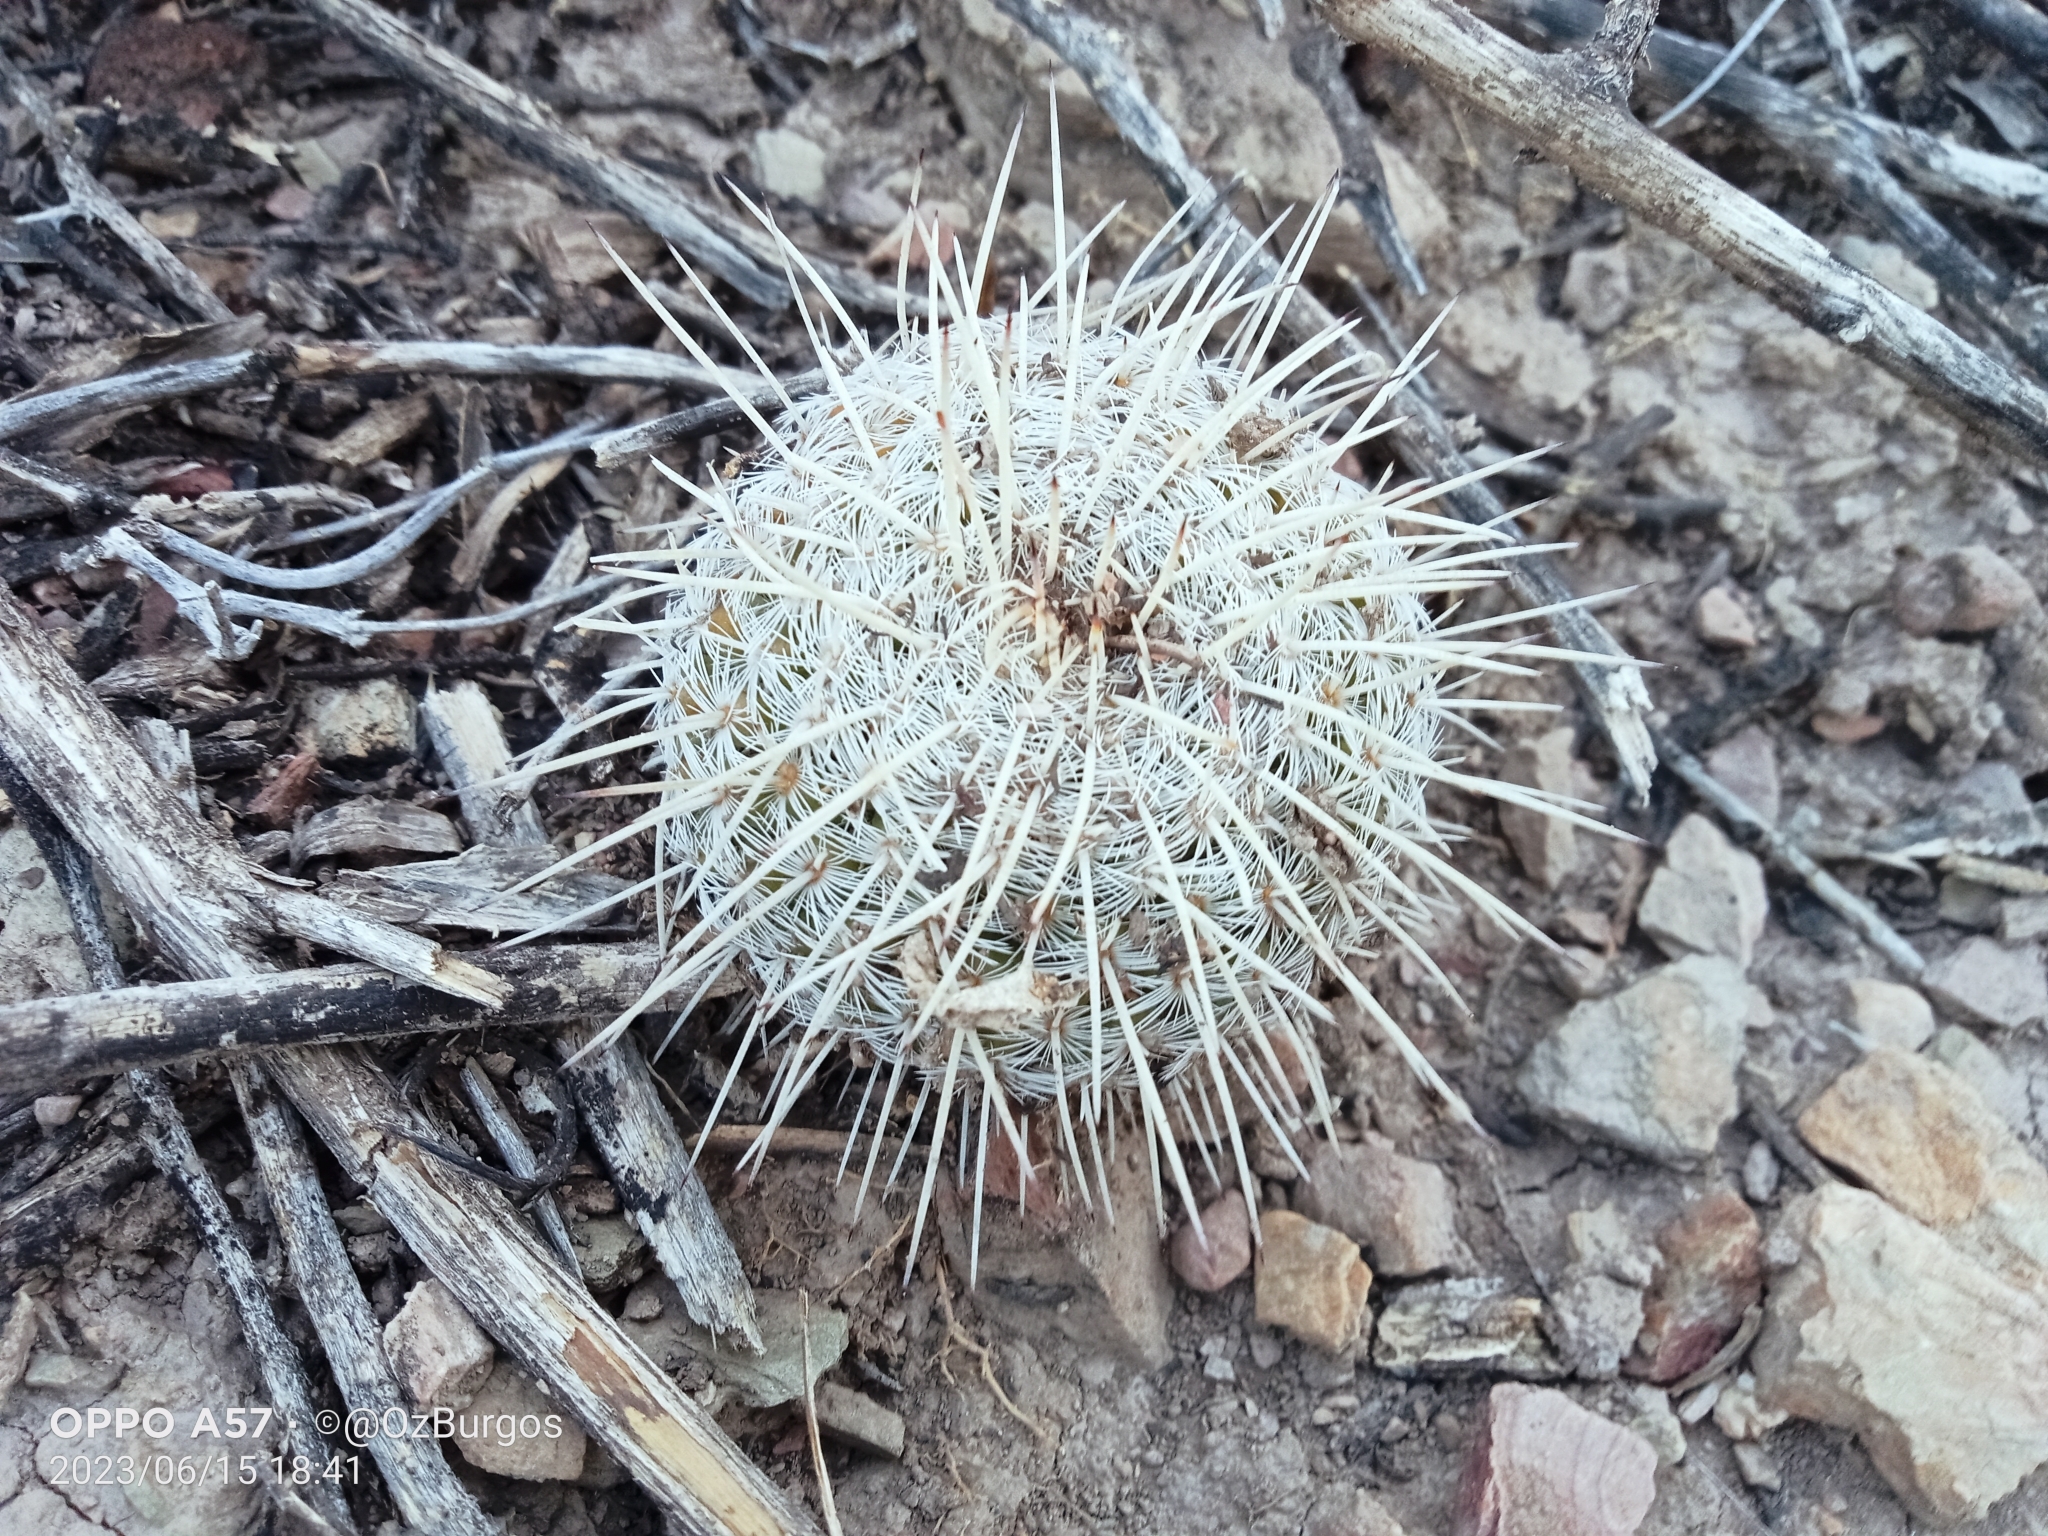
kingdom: Plantae
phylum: Tracheophyta
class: Magnoliopsida
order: Caryophyllales
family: Cactaceae
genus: Mammillaria
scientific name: Mammillaria parkinsonii
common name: Owl's-eye
